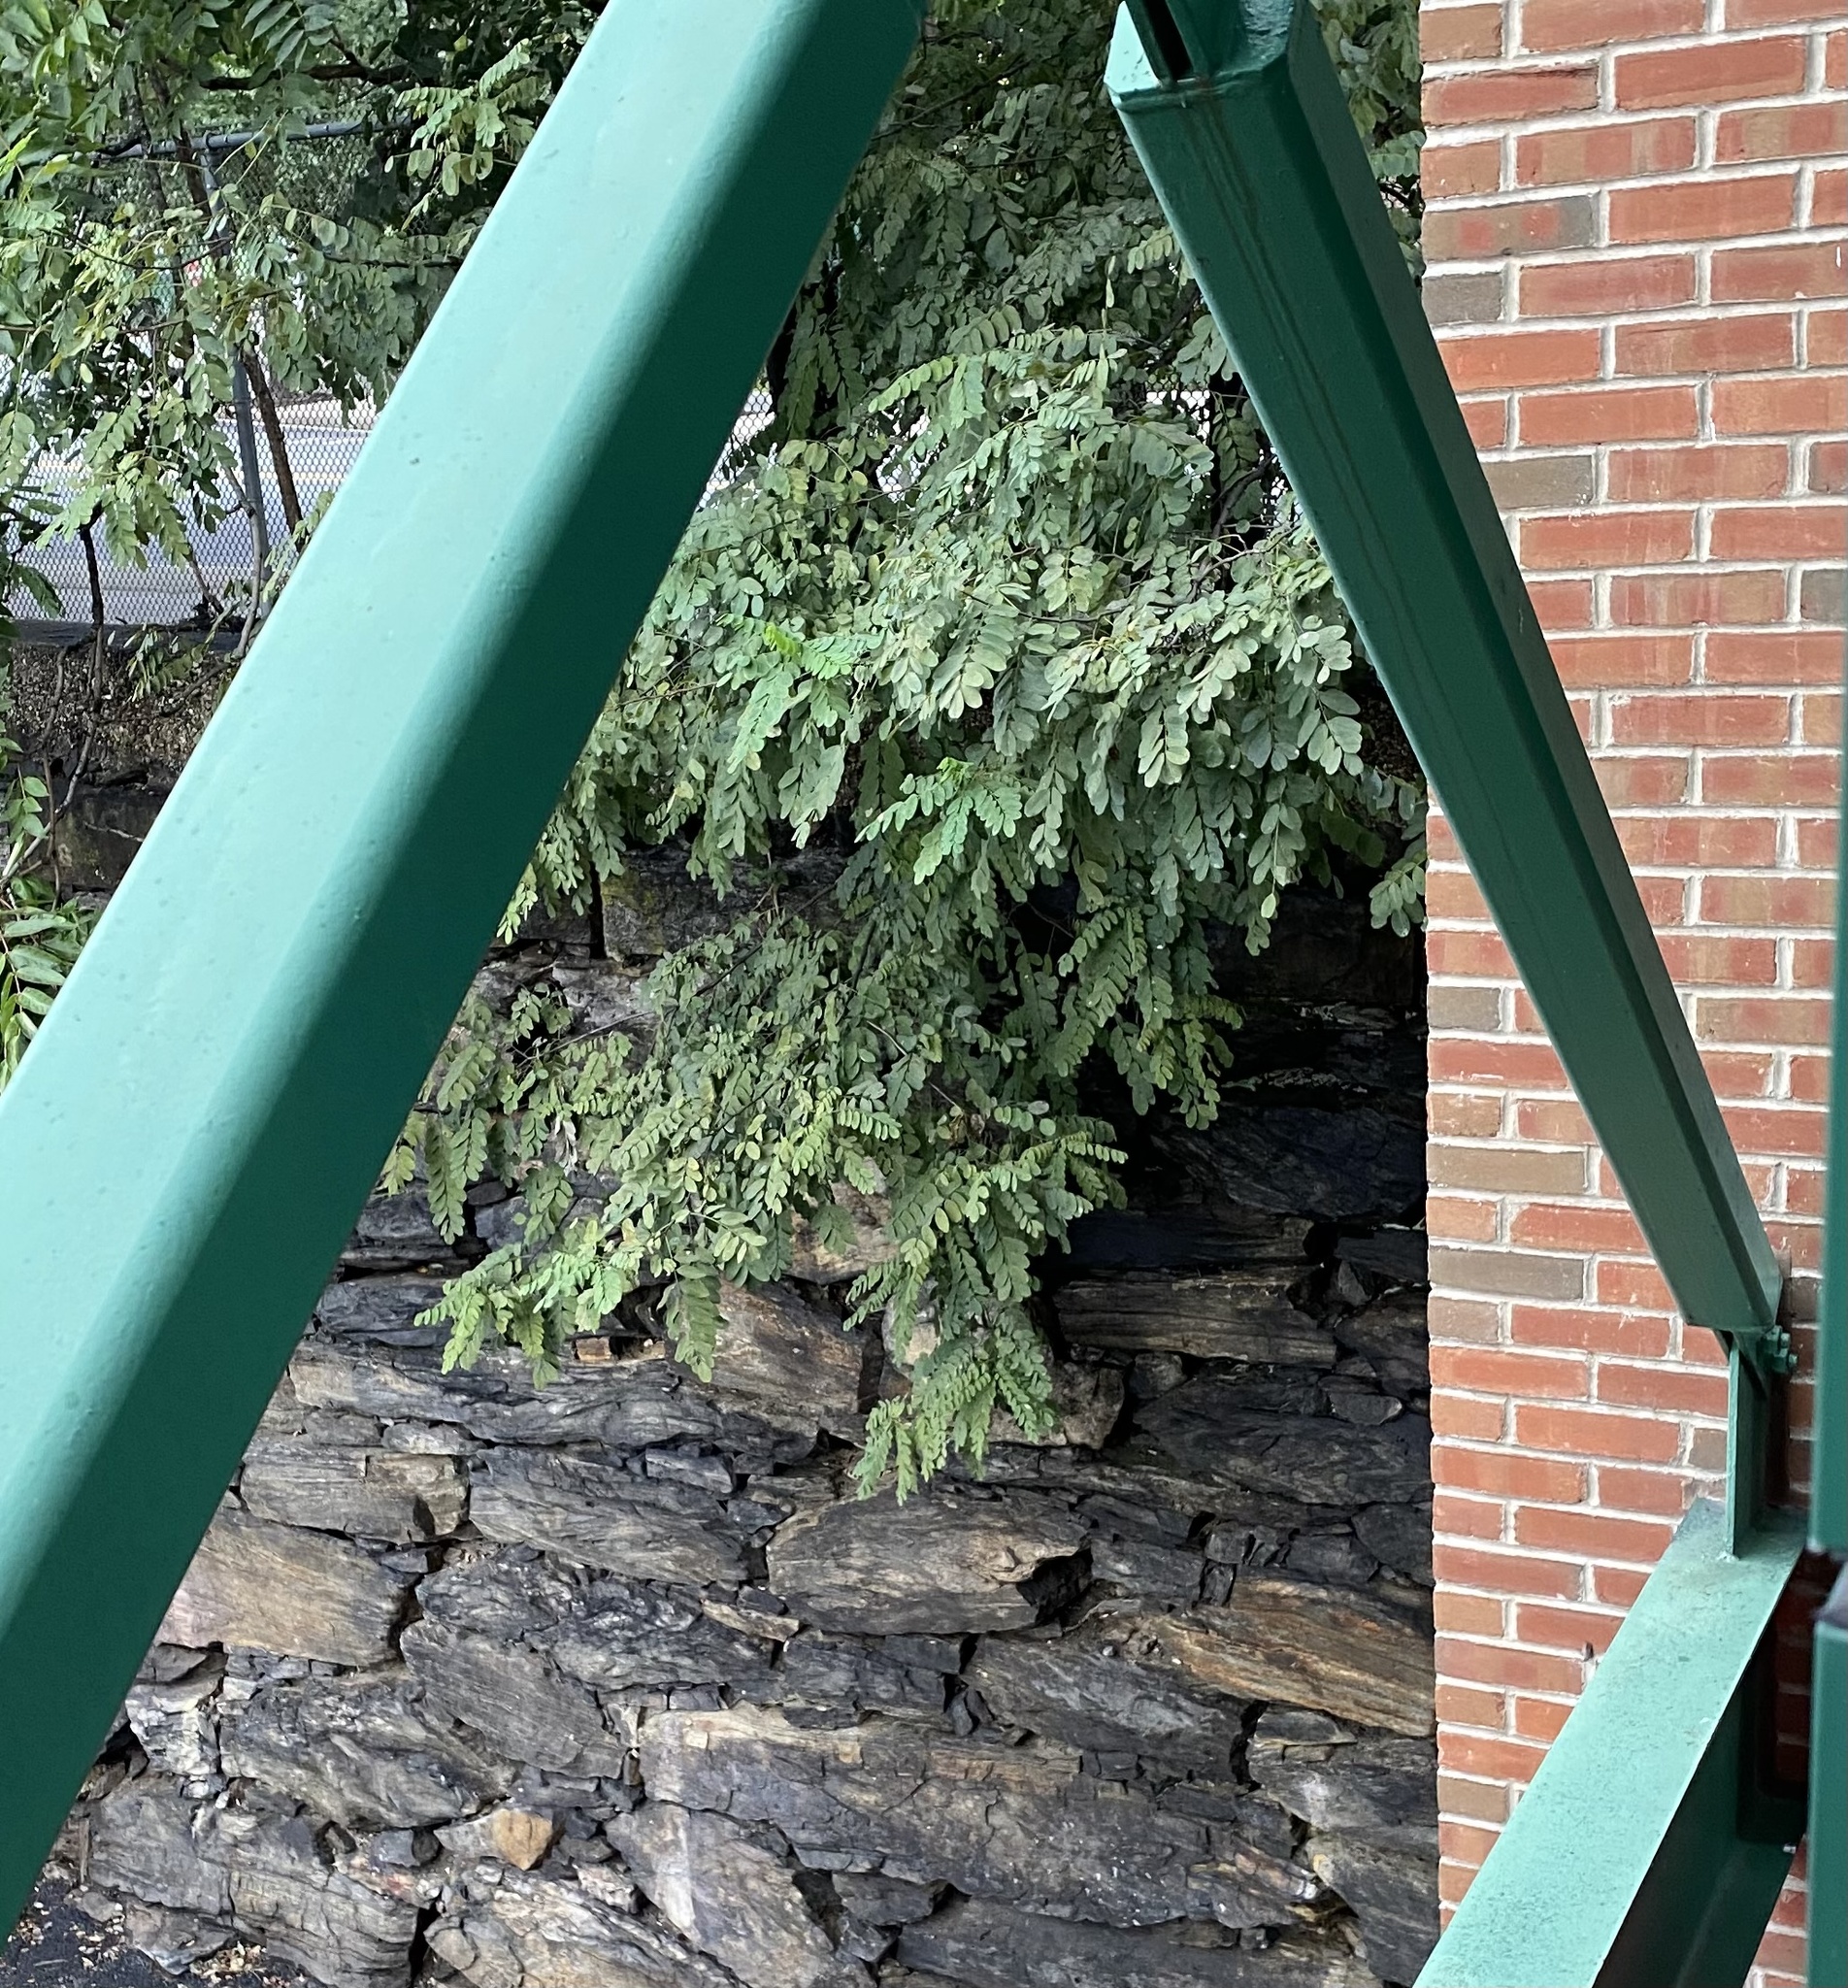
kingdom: Plantae
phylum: Tracheophyta
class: Magnoliopsida
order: Fabales
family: Fabaceae
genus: Robinia
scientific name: Robinia pseudoacacia
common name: Black locust
